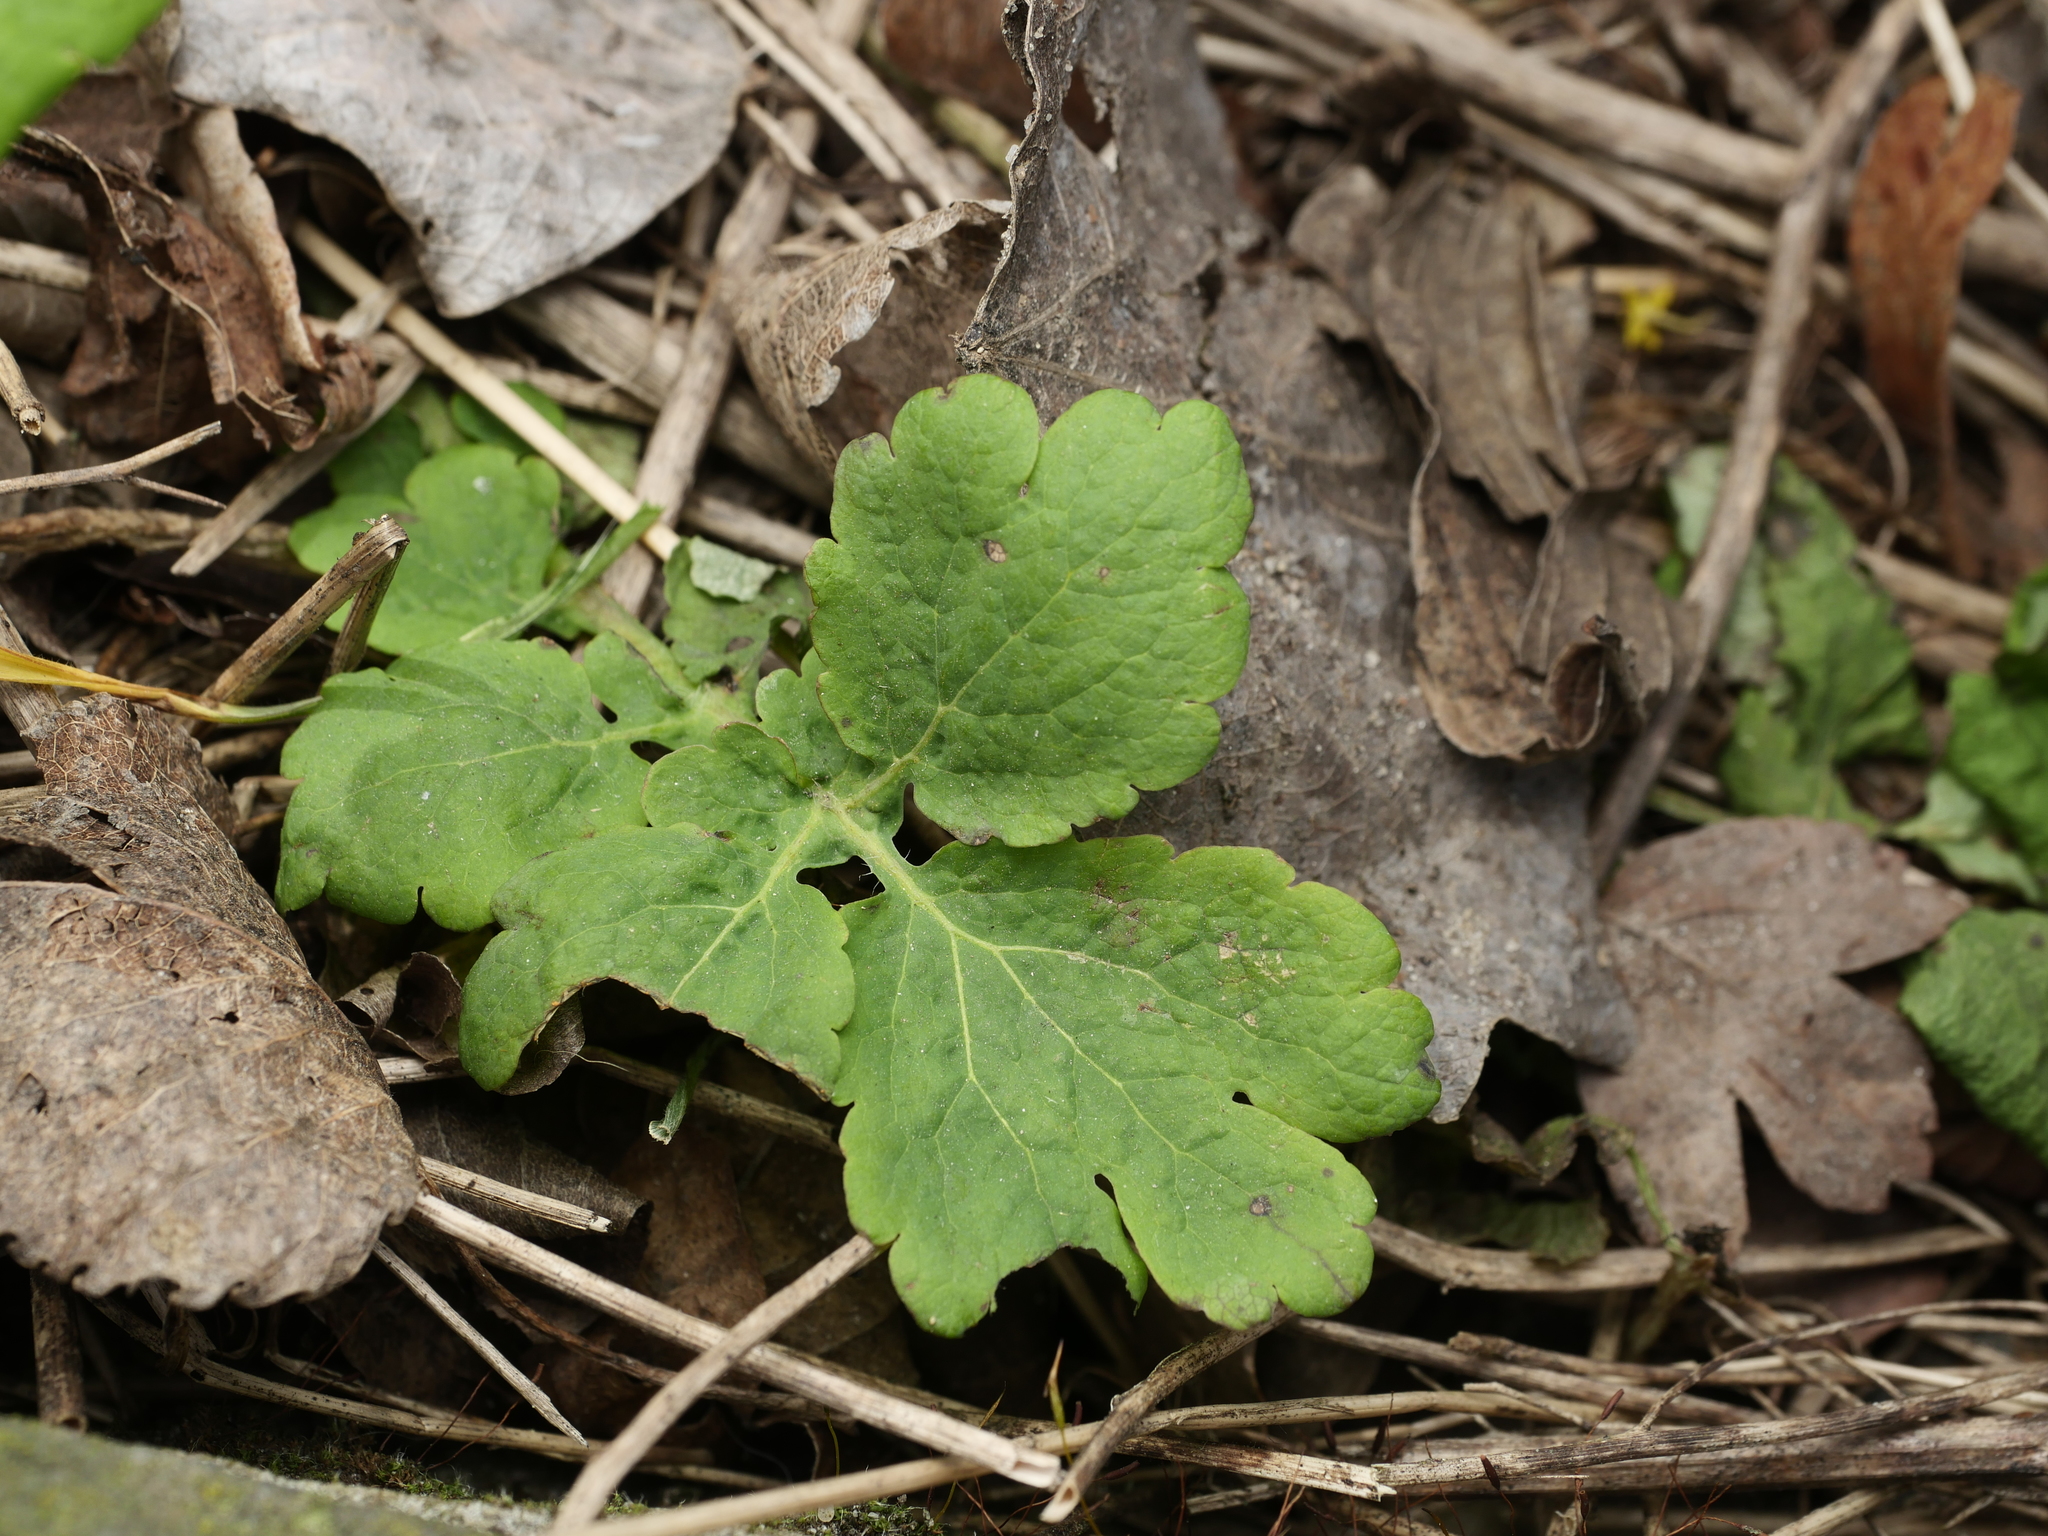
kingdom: Plantae
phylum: Tracheophyta
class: Magnoliopsida
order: Ranunculales
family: Papaveraceae
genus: Chelidonium
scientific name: Chelidonium majus
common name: Greater celandine
